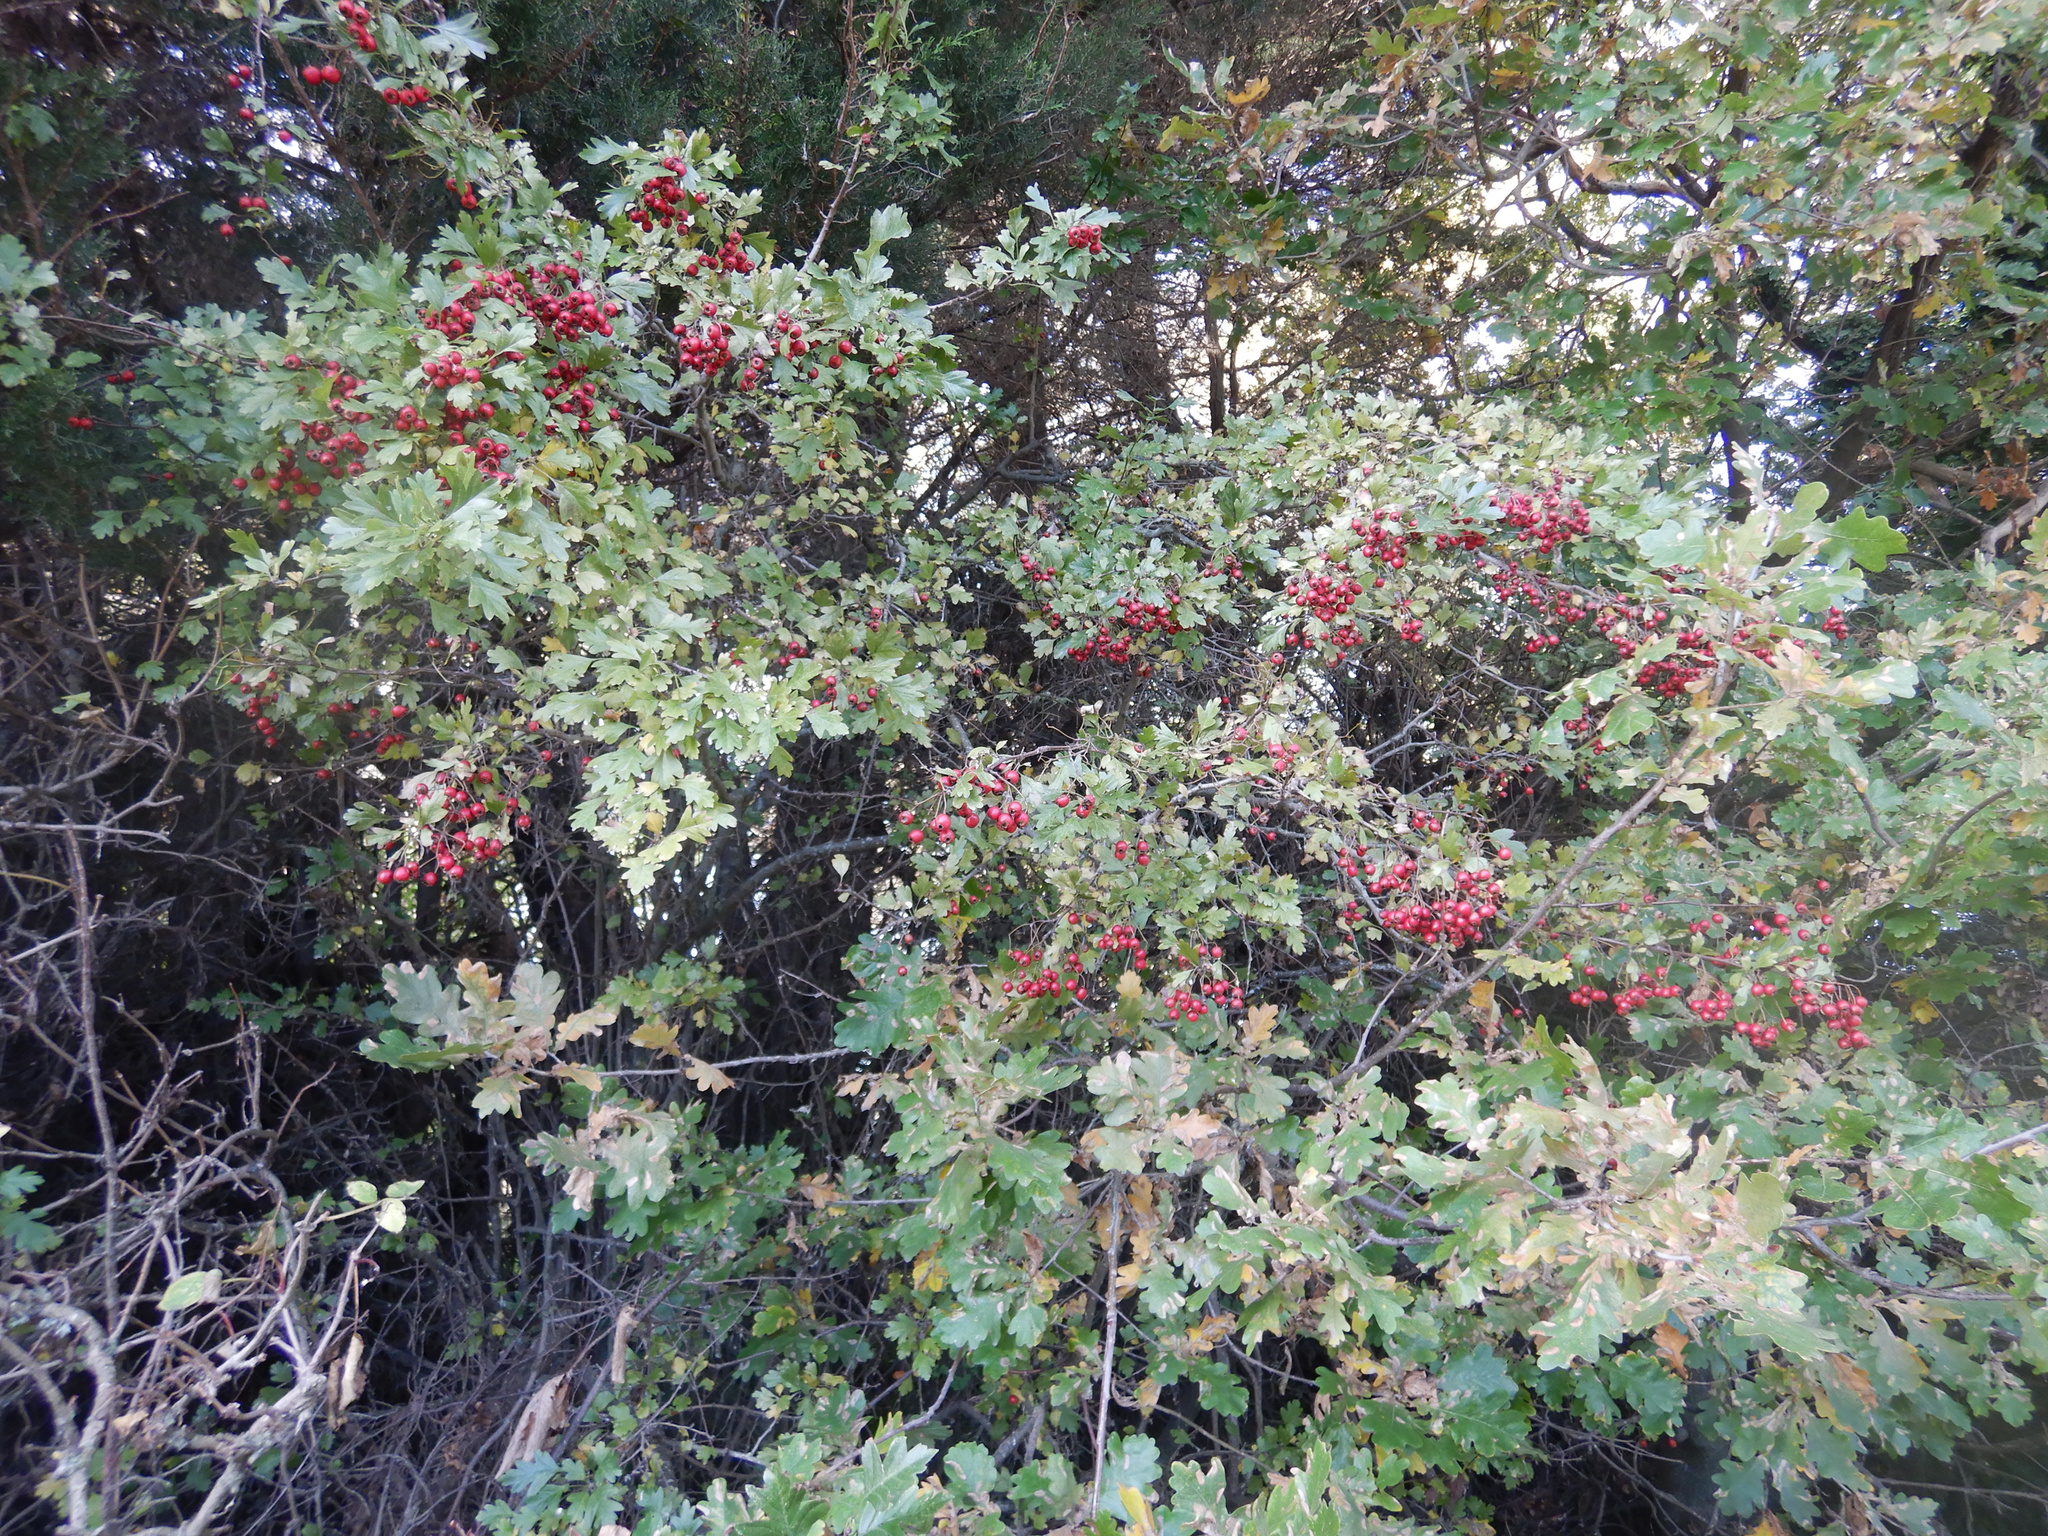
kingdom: Plantae
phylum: Tracheophyta
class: Magnoliopsida
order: Rosales
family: Rosaceae
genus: Crataegus
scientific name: Crataegus monogyna
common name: Hawthorn
